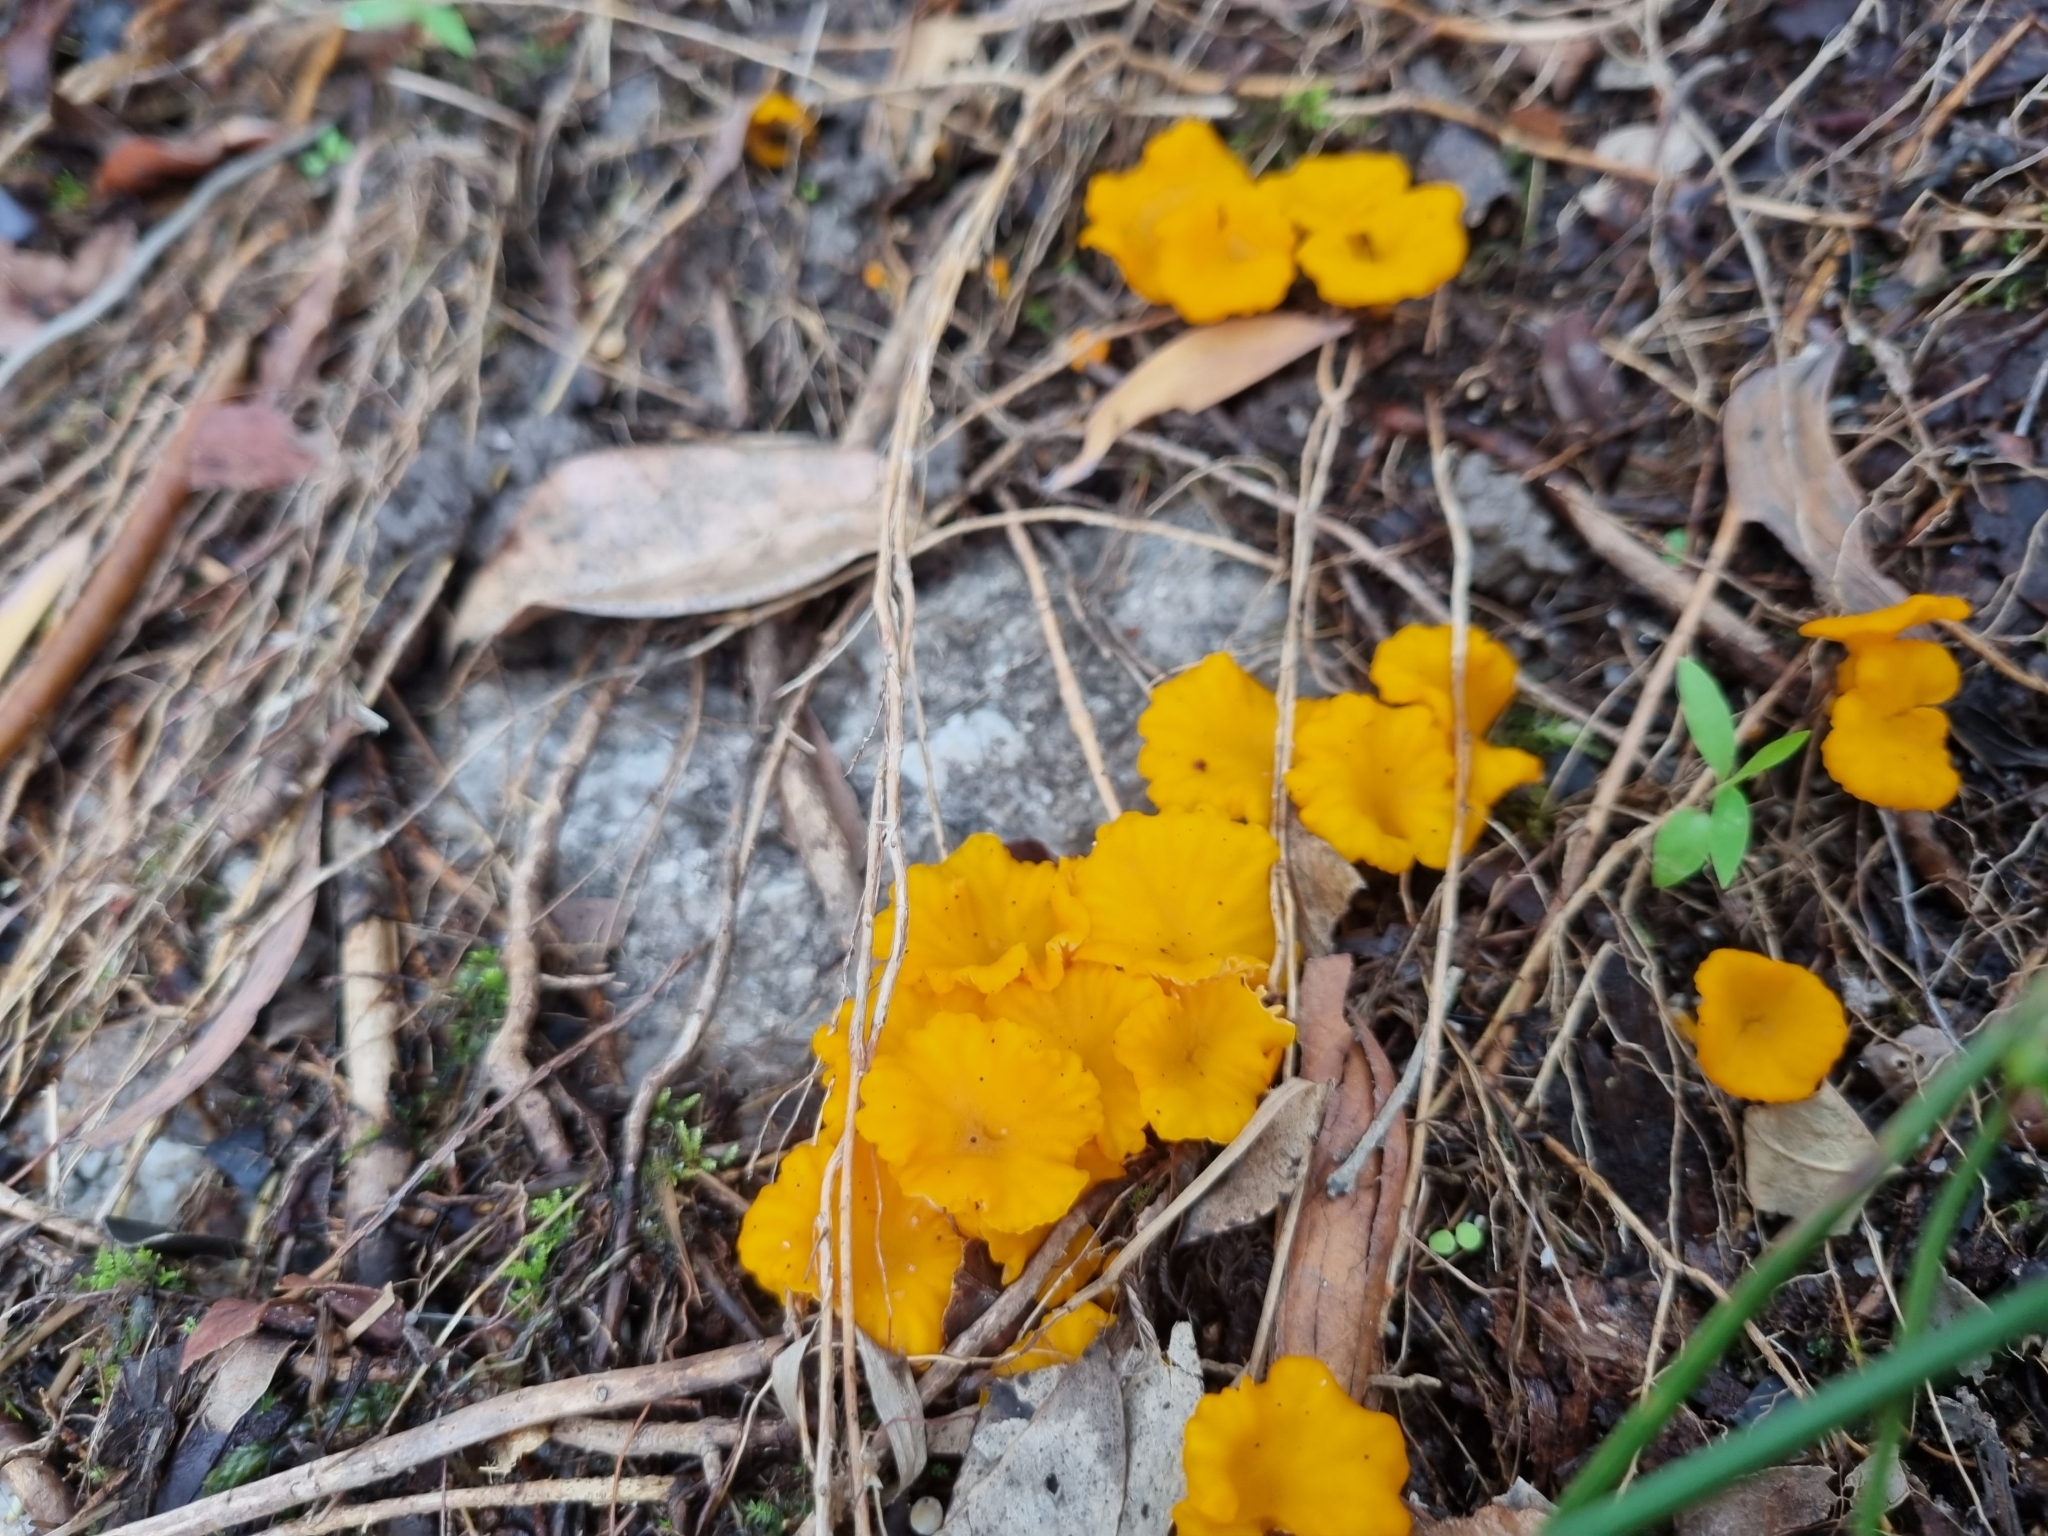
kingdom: Fungi
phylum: Basidiomycota
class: Agaricomycetes
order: Cantharellales
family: Hydnaceae
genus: Cantharellus
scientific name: Cantharellus
